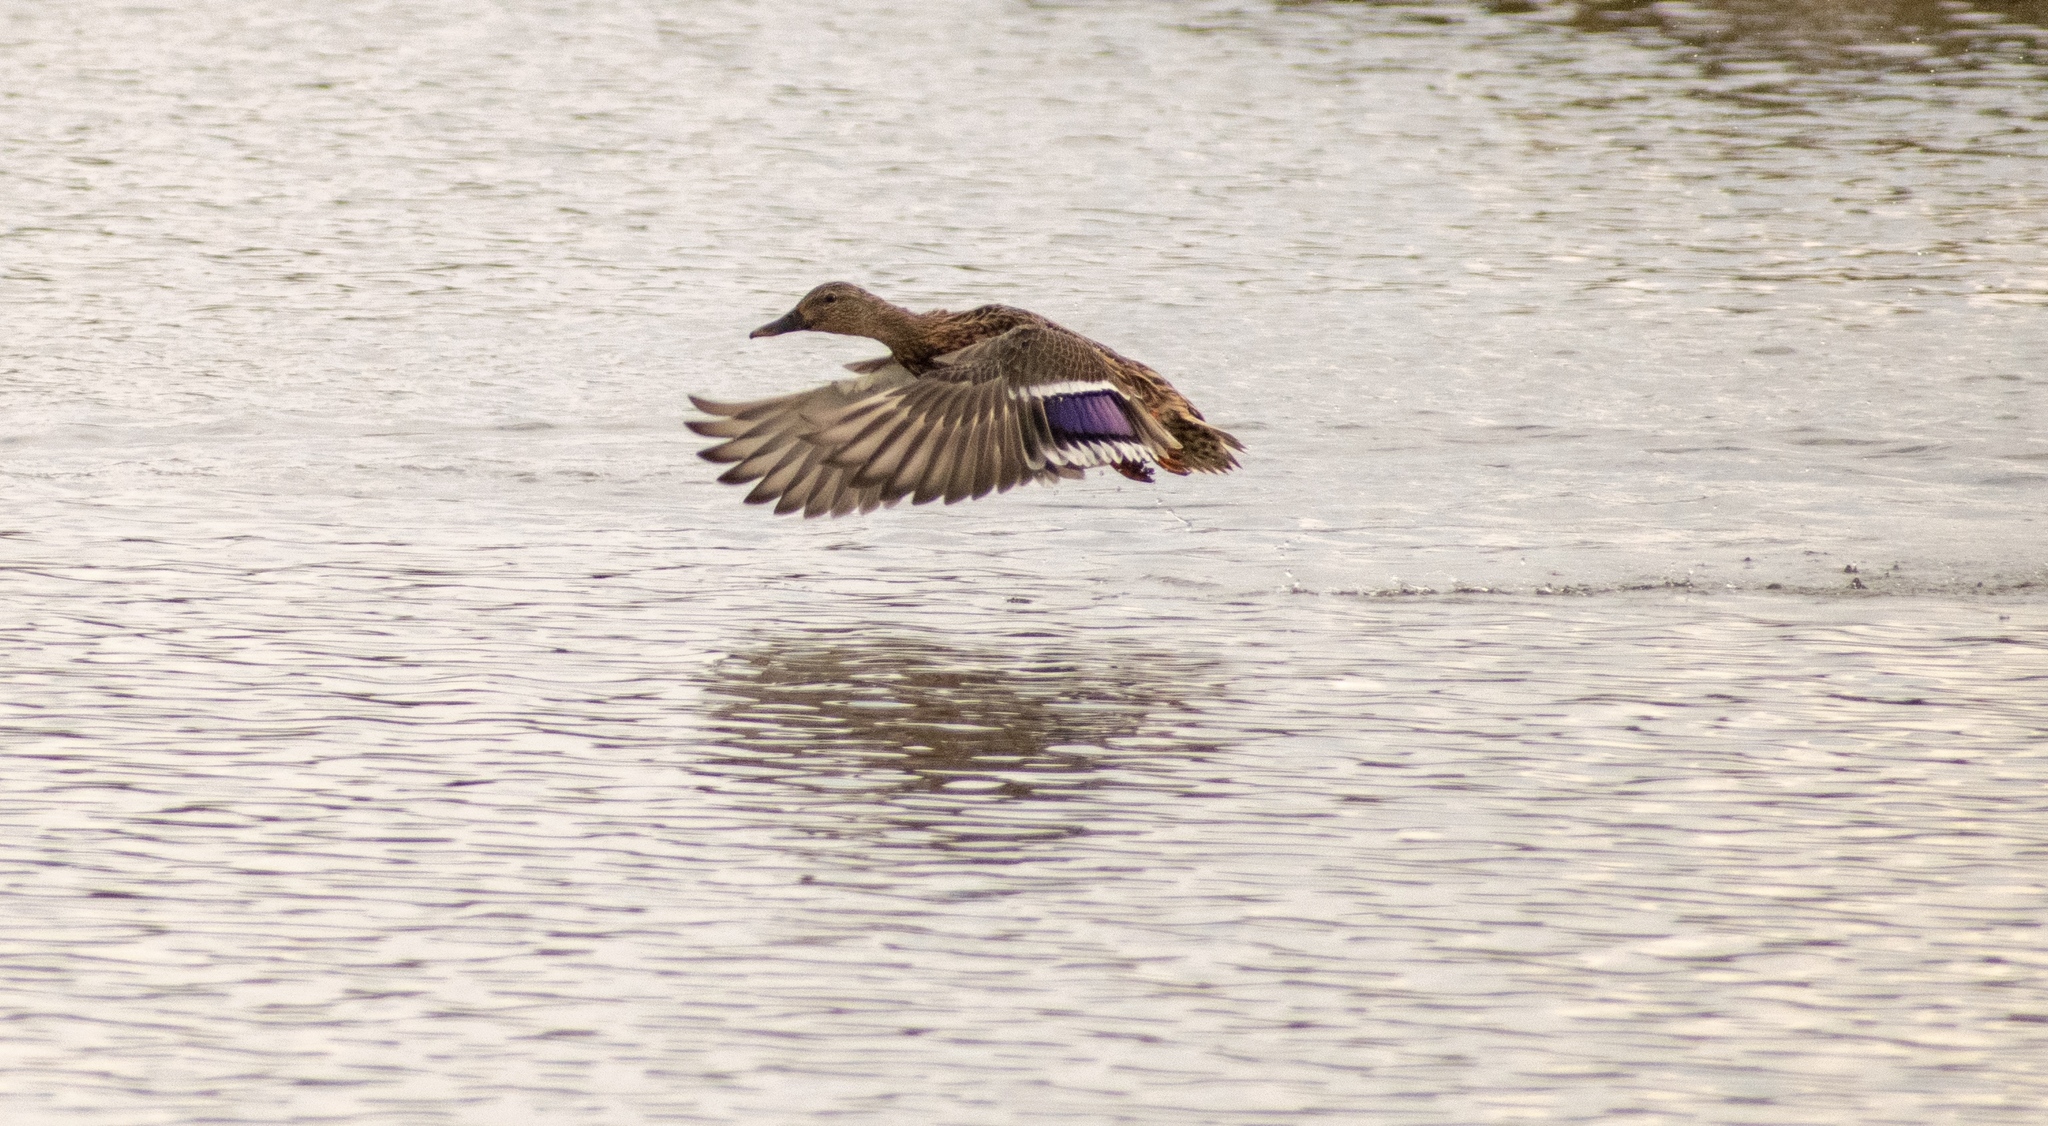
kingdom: Animalia
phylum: Chordata
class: Aves
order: Anseriformes
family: Anatidae
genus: Anas
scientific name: Anas platyrhynchos
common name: Mallard
